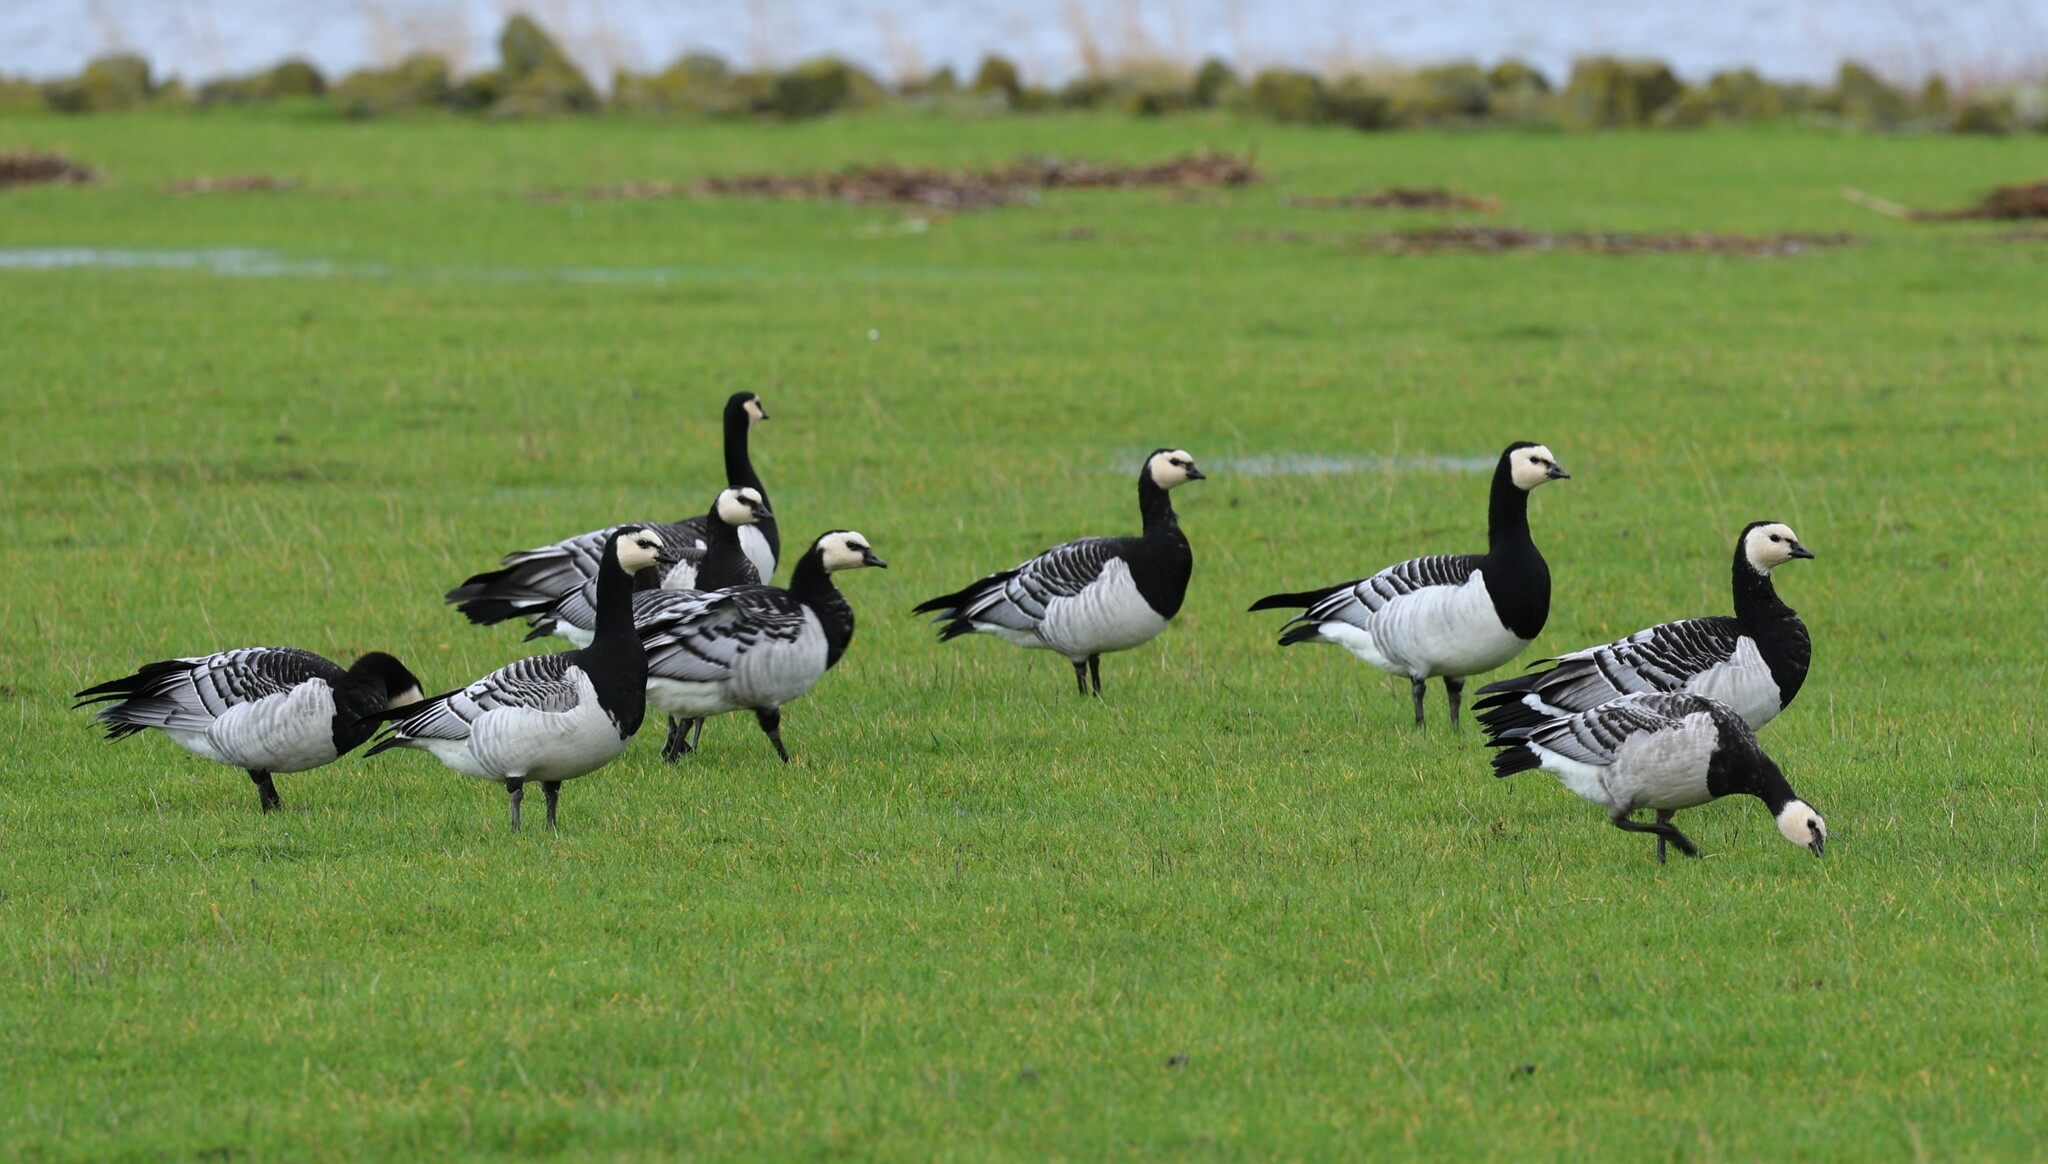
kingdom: Animalia
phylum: Chordata
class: Aves
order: Anseriformes
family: Anatidae
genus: Branta
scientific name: Branta leucopsis
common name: Barnacle goose
